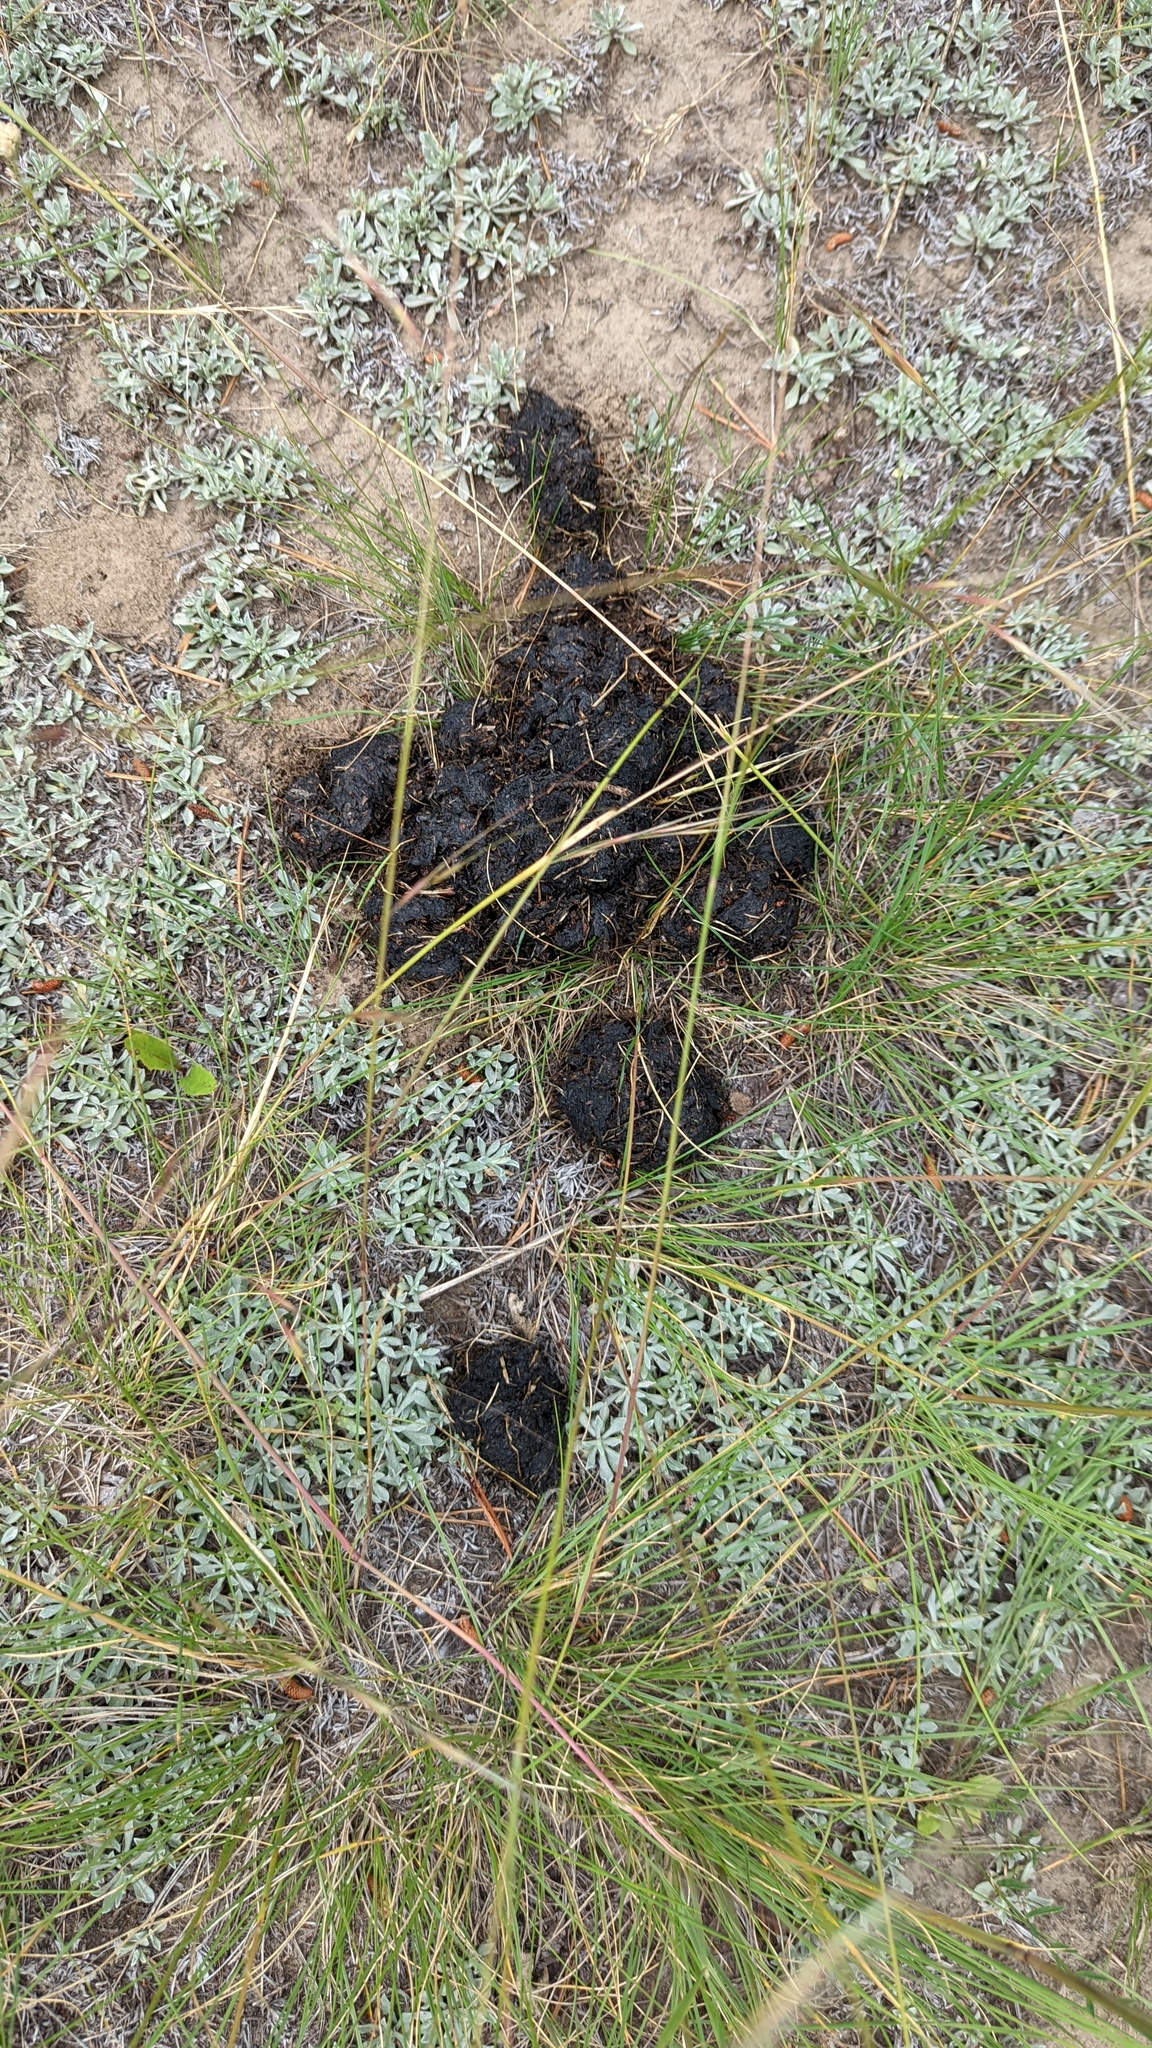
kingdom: Animalia
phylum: Chordata
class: Mammalia
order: Carnivora
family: Ursidae
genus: Ursus
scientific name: Ursus americanus
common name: American black bear
